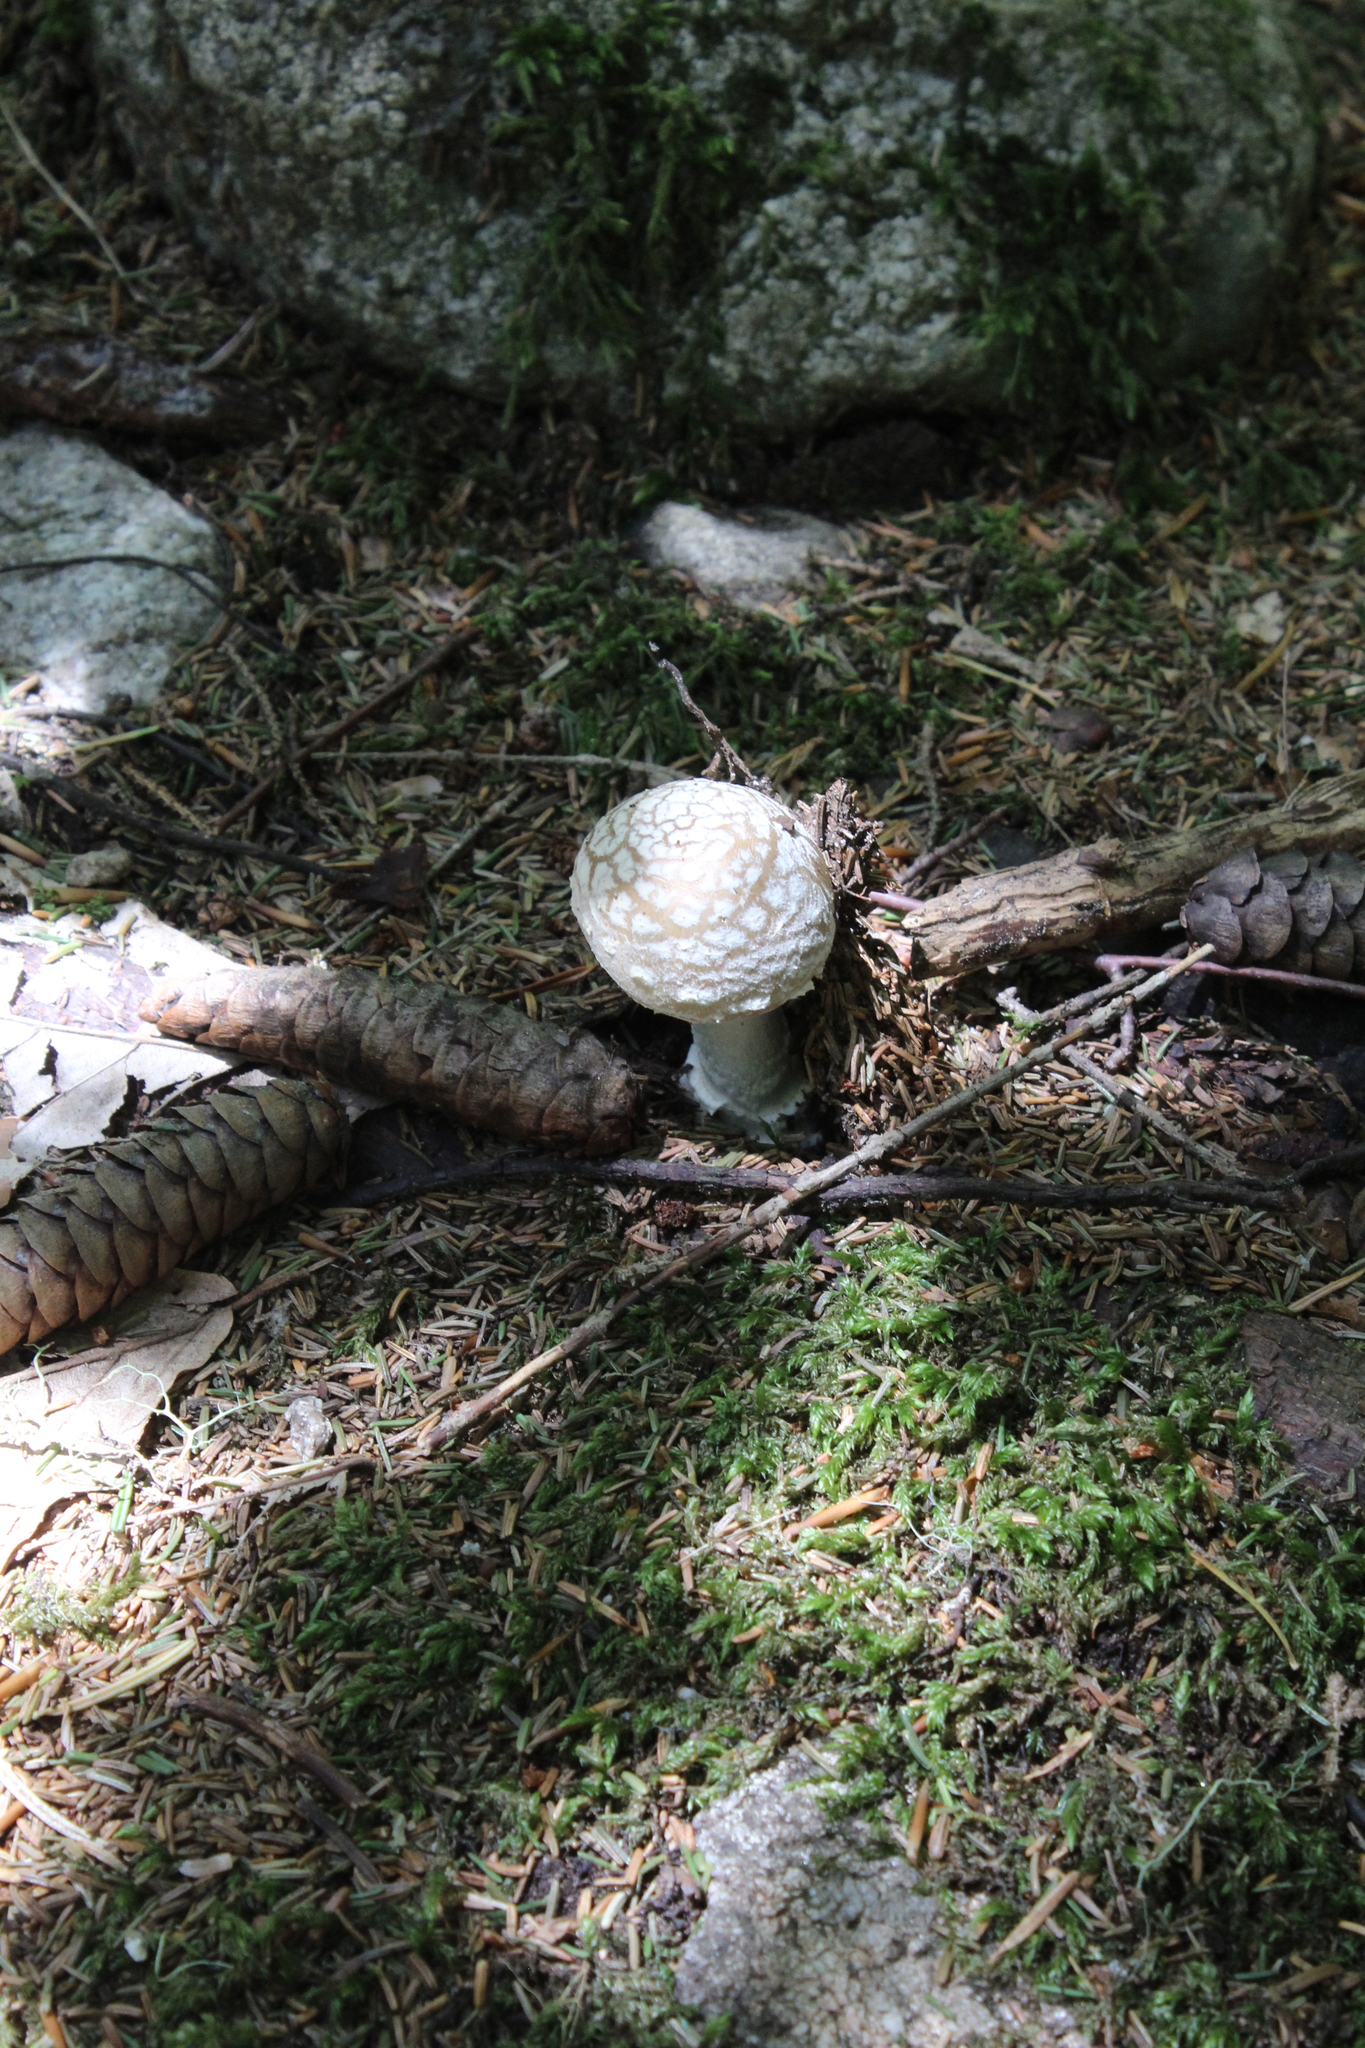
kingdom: Fungi
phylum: Basidiomycota
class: Agaricomycetes
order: Agaricales
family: Amanitaceae
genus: Amanita
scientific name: Amanita pantherina
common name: Panthercap
